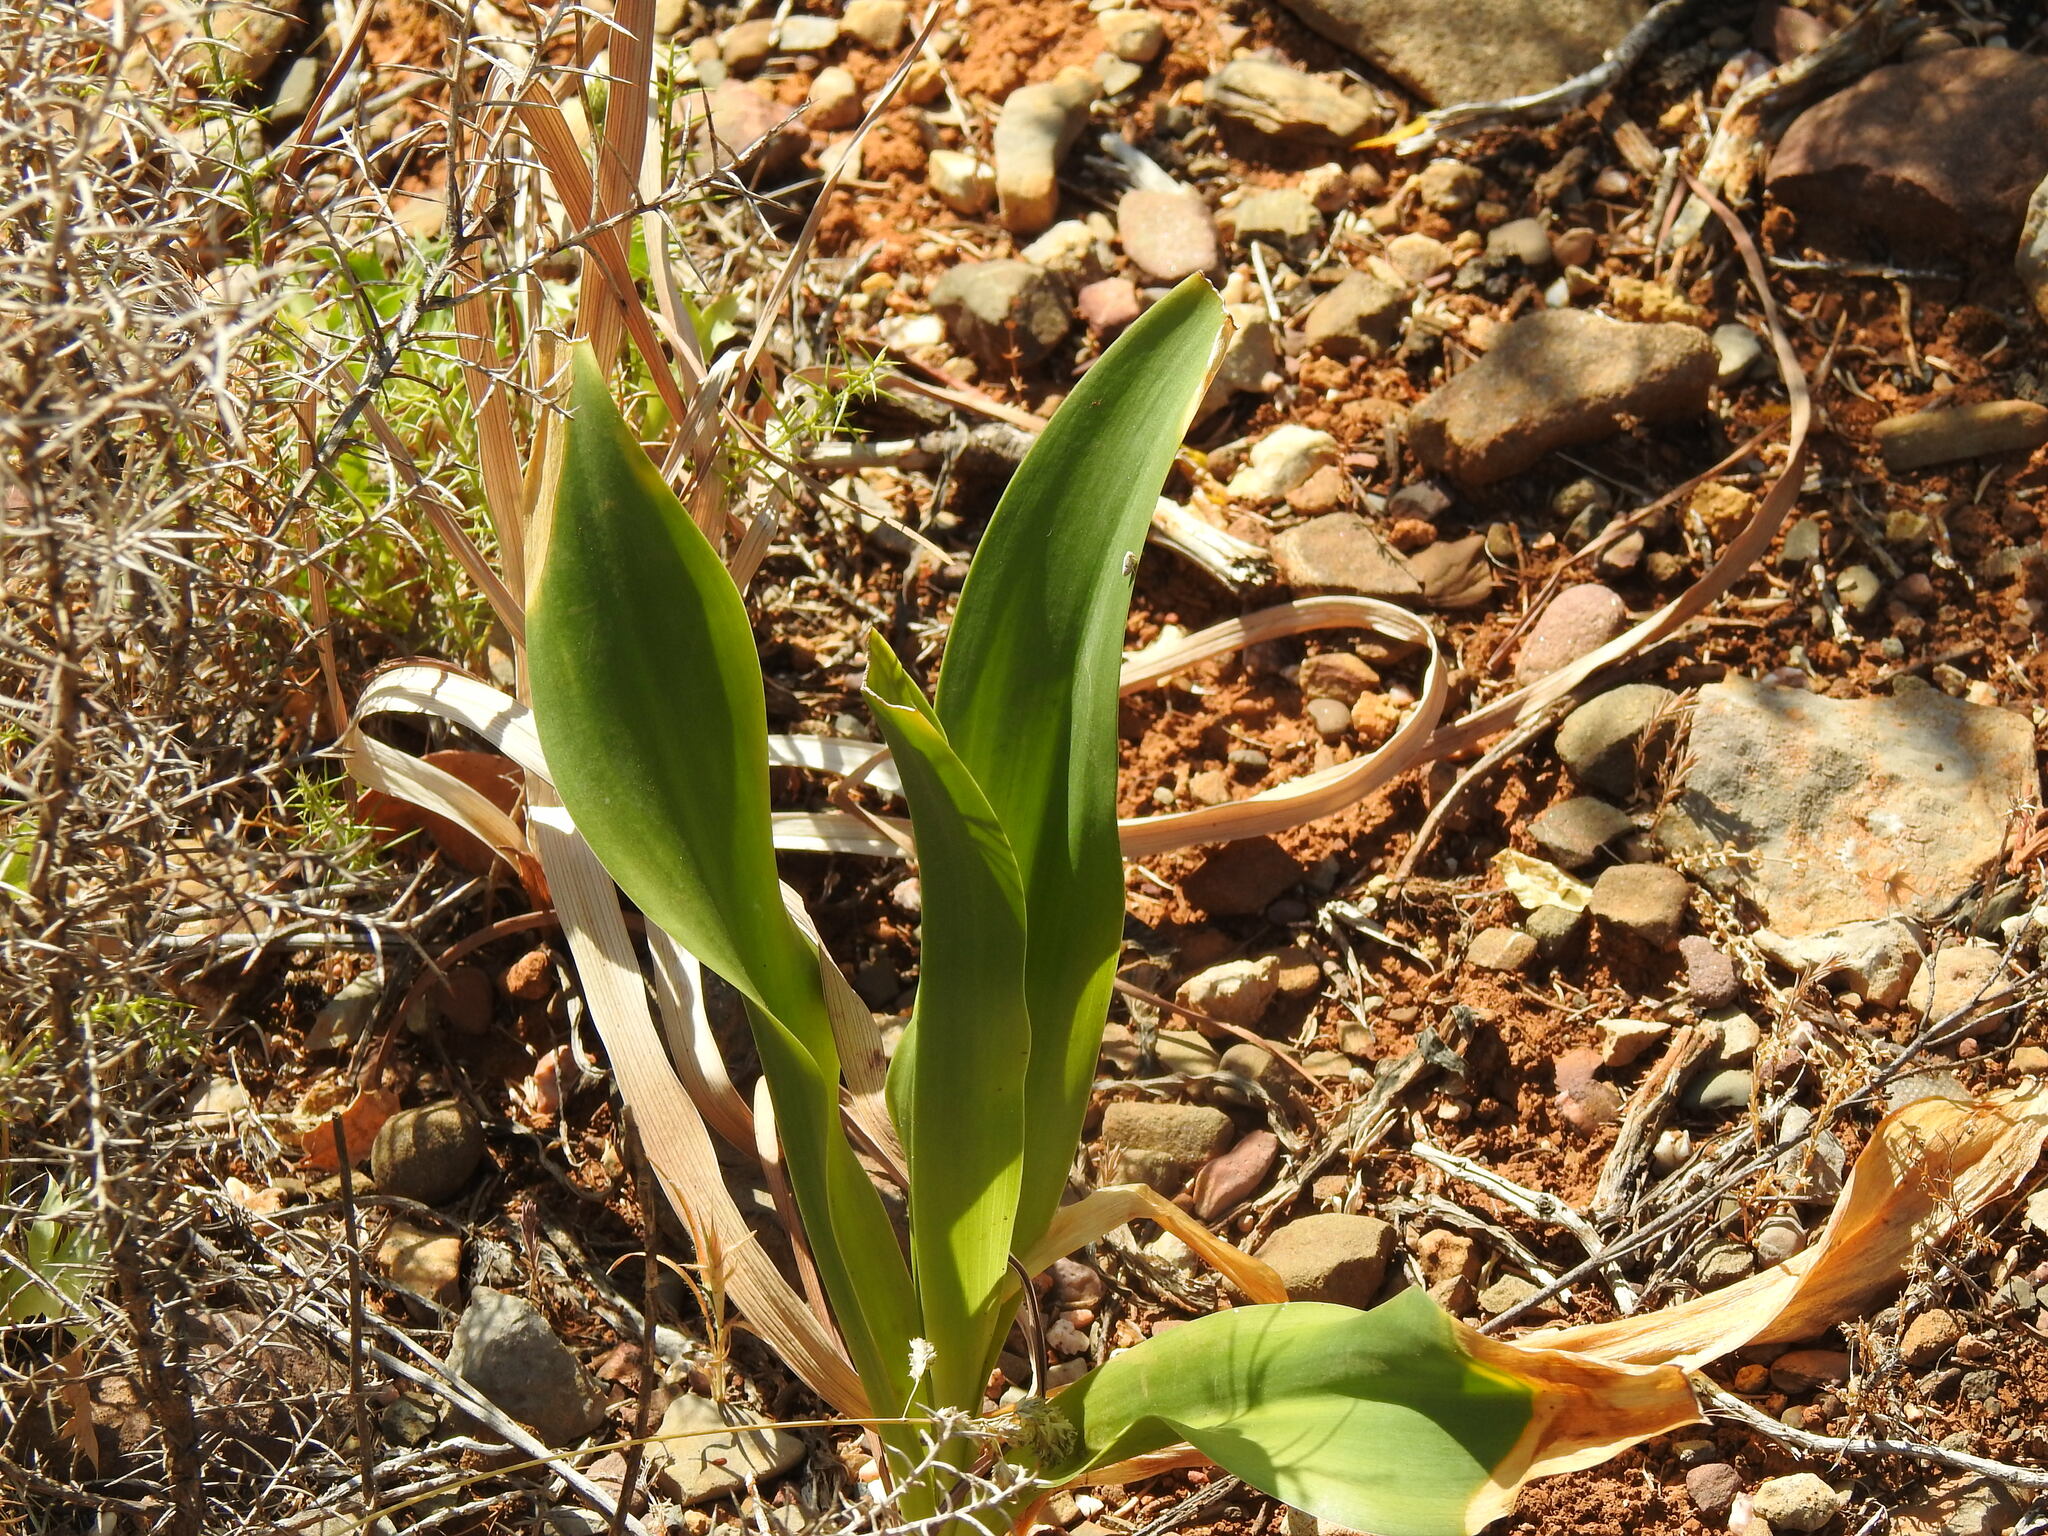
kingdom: Plantae
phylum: Tracheophyta
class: Liliopsida
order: Asparagales
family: Asparagaceae
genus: Drimia
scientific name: Drimia maritima
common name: Maritime squill
